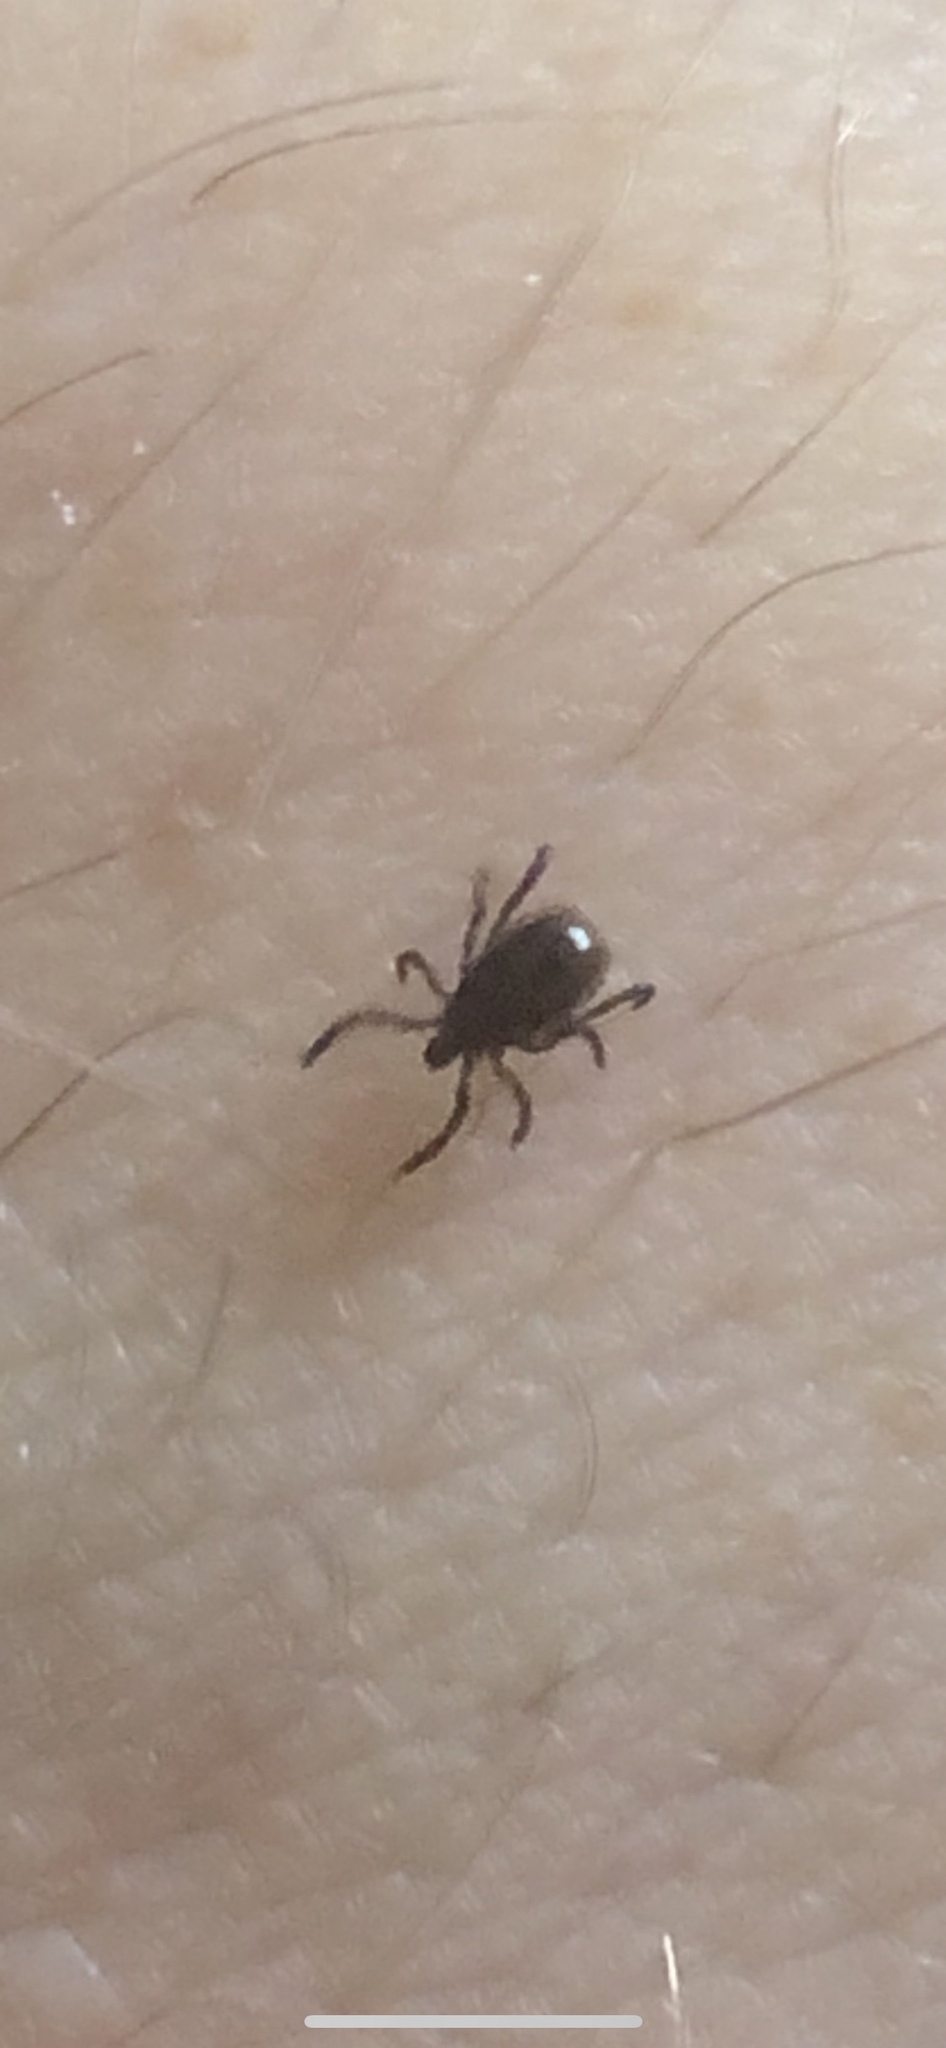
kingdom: Animalia
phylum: Arthropoda
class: Arachnida
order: Ixodida
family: Ixodidae
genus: Ixodes
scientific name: Ixodes scapularis
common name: Black legged tick
